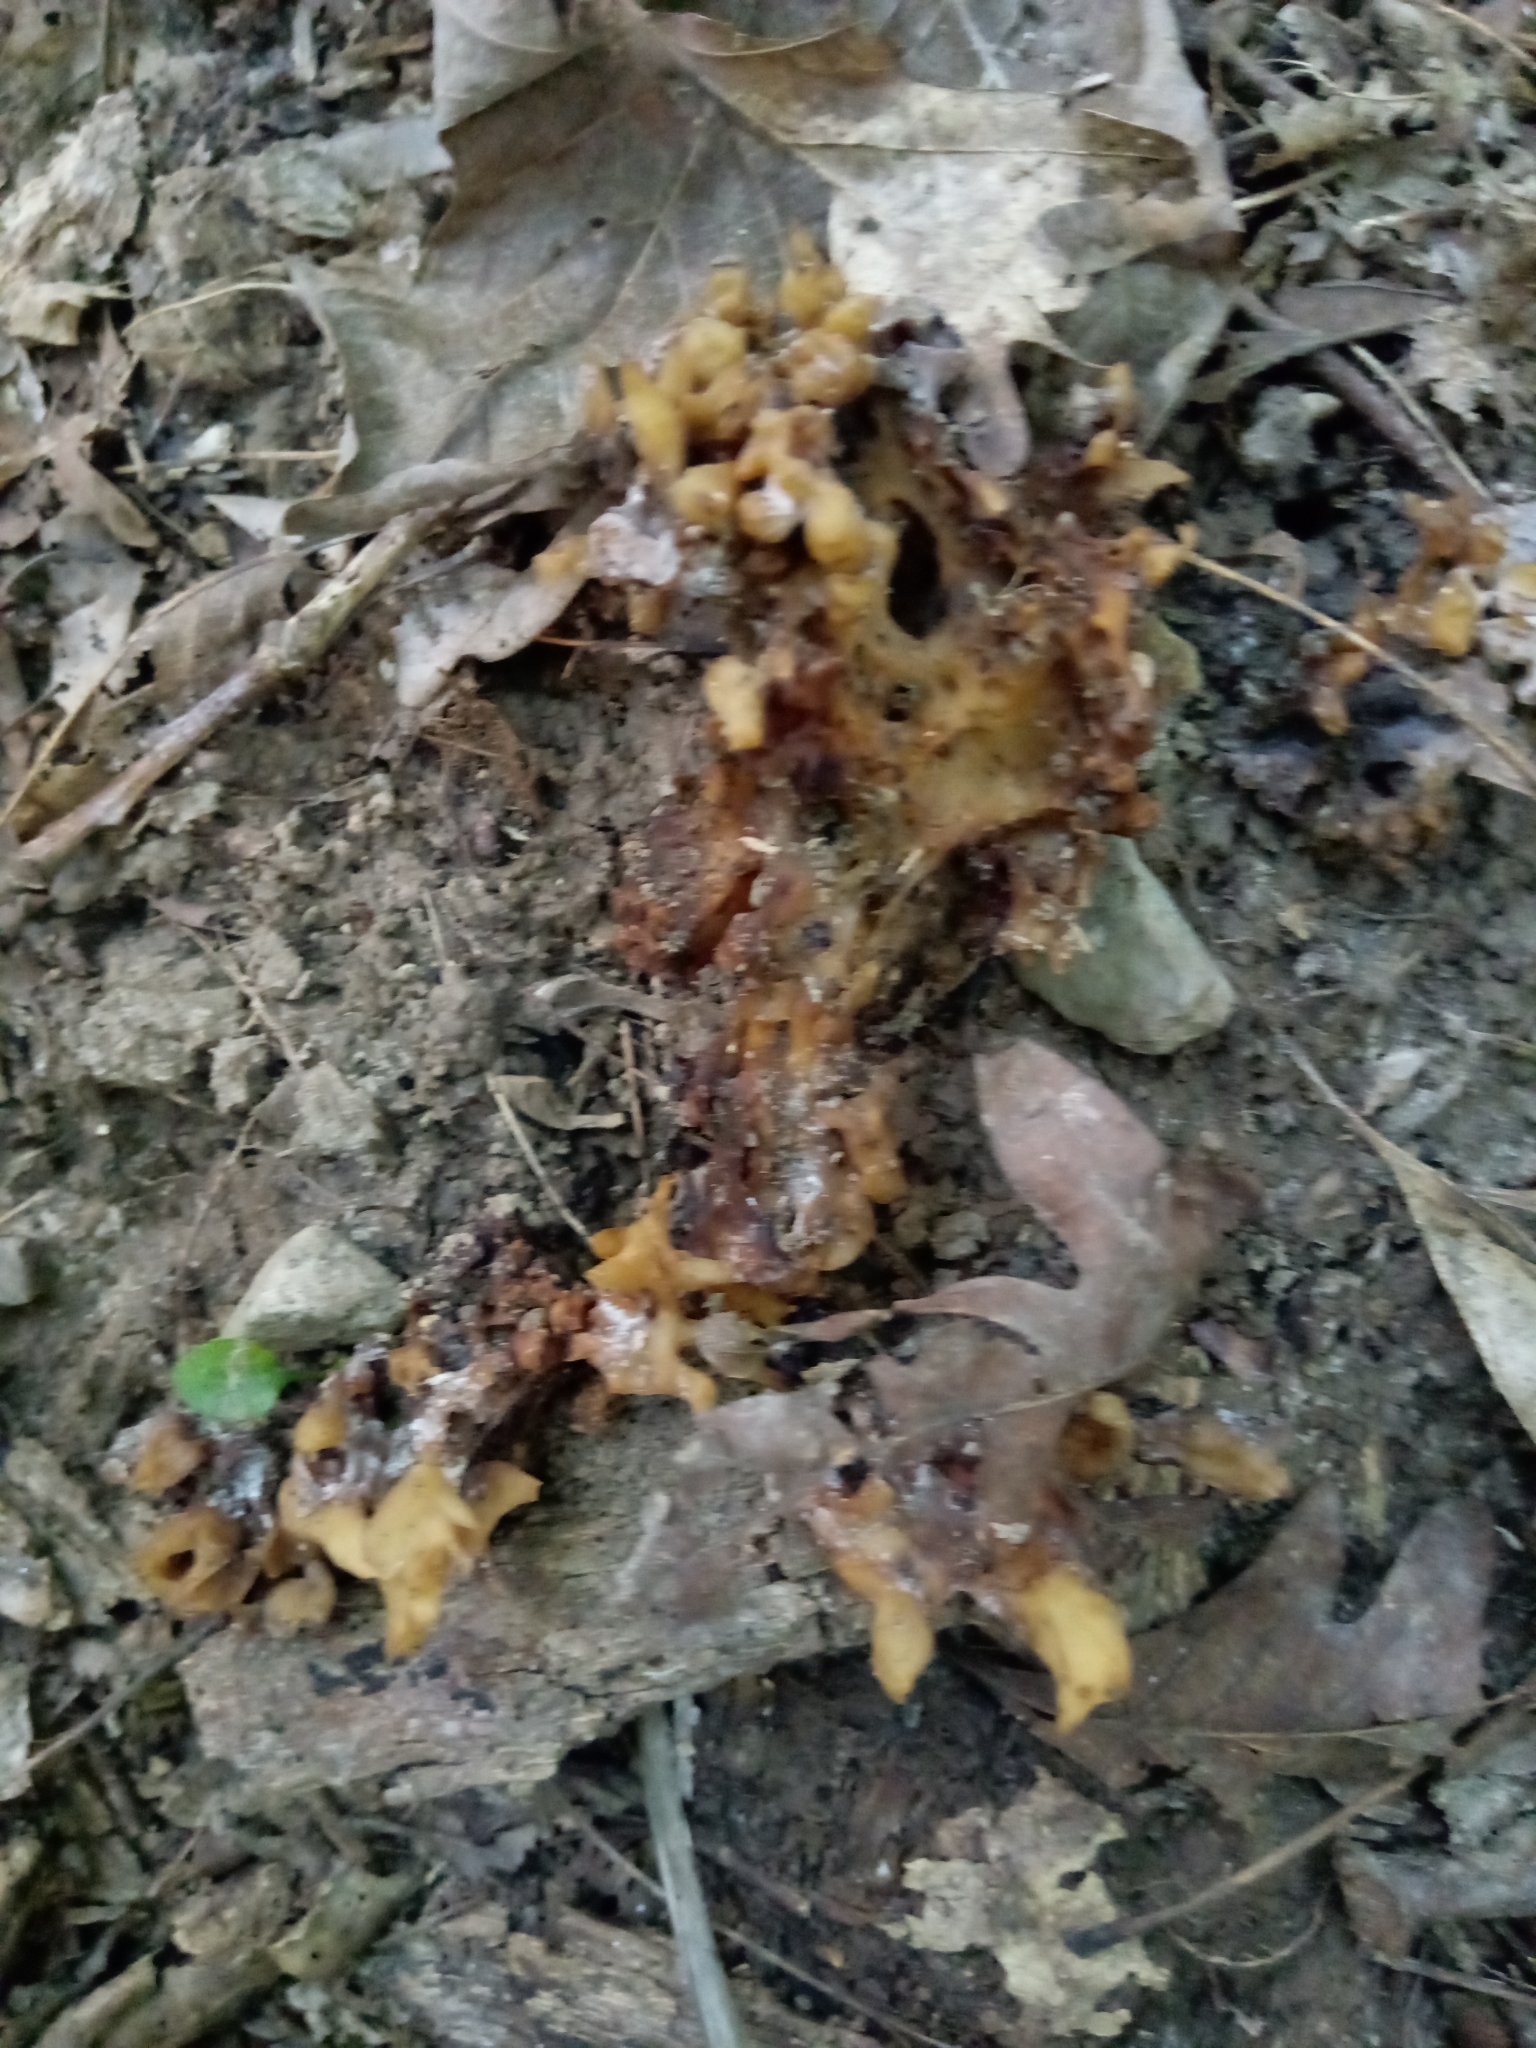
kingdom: Fungi
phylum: Basidiomycota
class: Agaricomycetes
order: Sebacinales
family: Sebacinaceae
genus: Sebacina
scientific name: Sebacina sparassoidea
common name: White coral jelly fungus
